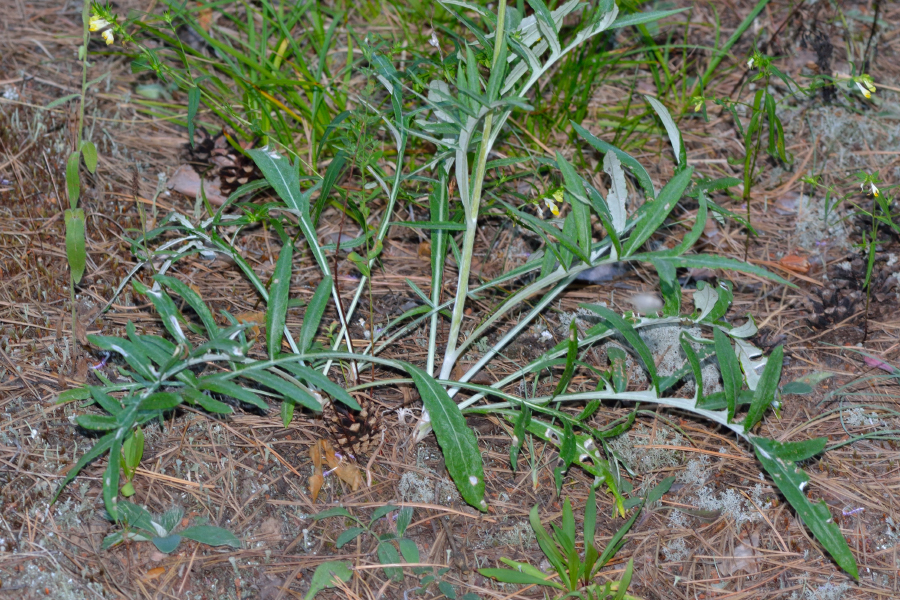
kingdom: Plantae
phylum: Tracheophyta
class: Magnoliopsida
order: Asterales
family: Asteraceae
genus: Jurinea
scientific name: Jurinea cyanoides
